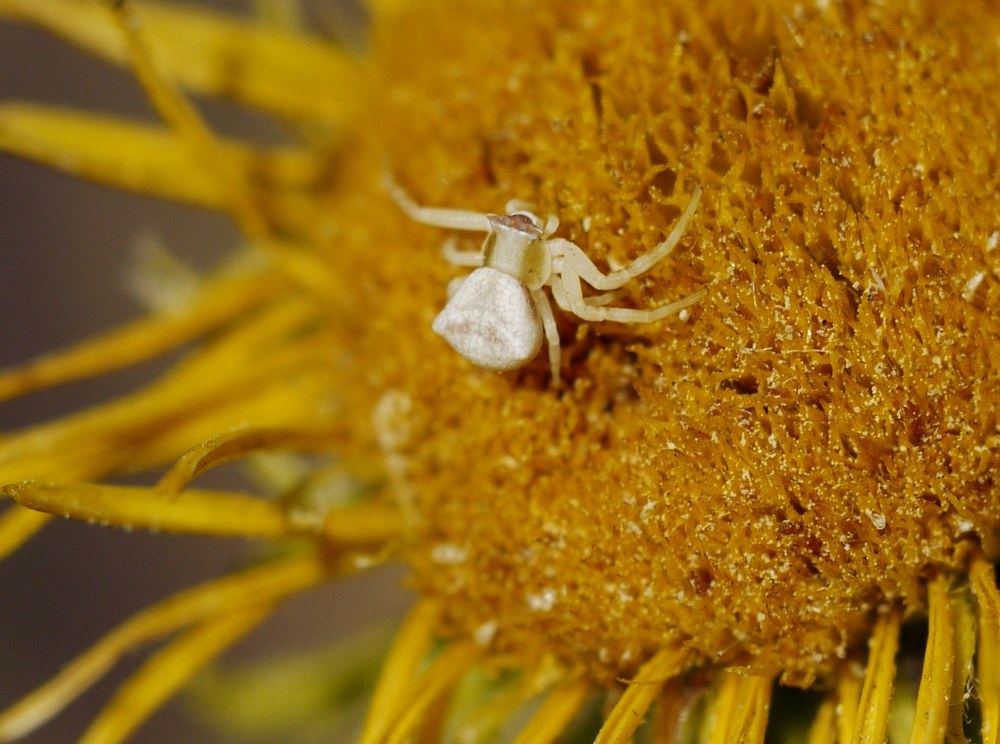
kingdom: Animalia
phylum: Arthropoda
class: Arachnida
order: Araneae
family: Thomisidae
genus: Thomisus
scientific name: Thomisus onustus
